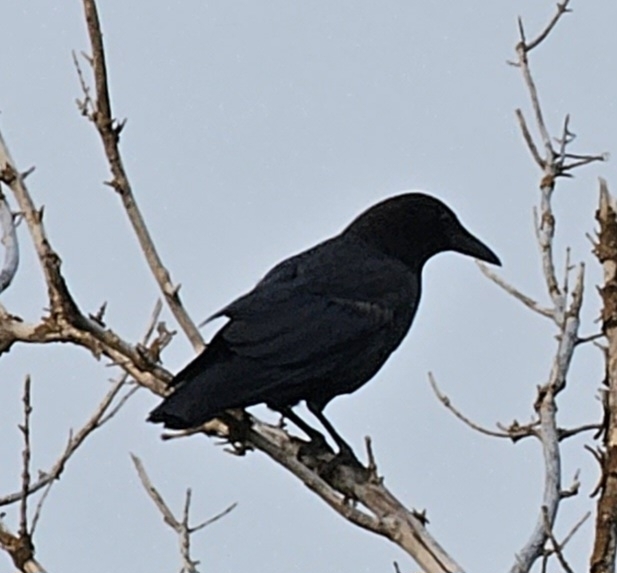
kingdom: Animalia
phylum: Chordata
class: Aves
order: Passeriformes
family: Corvidae
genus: Corvus
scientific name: Corvus brachyrhynchos
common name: American crow
